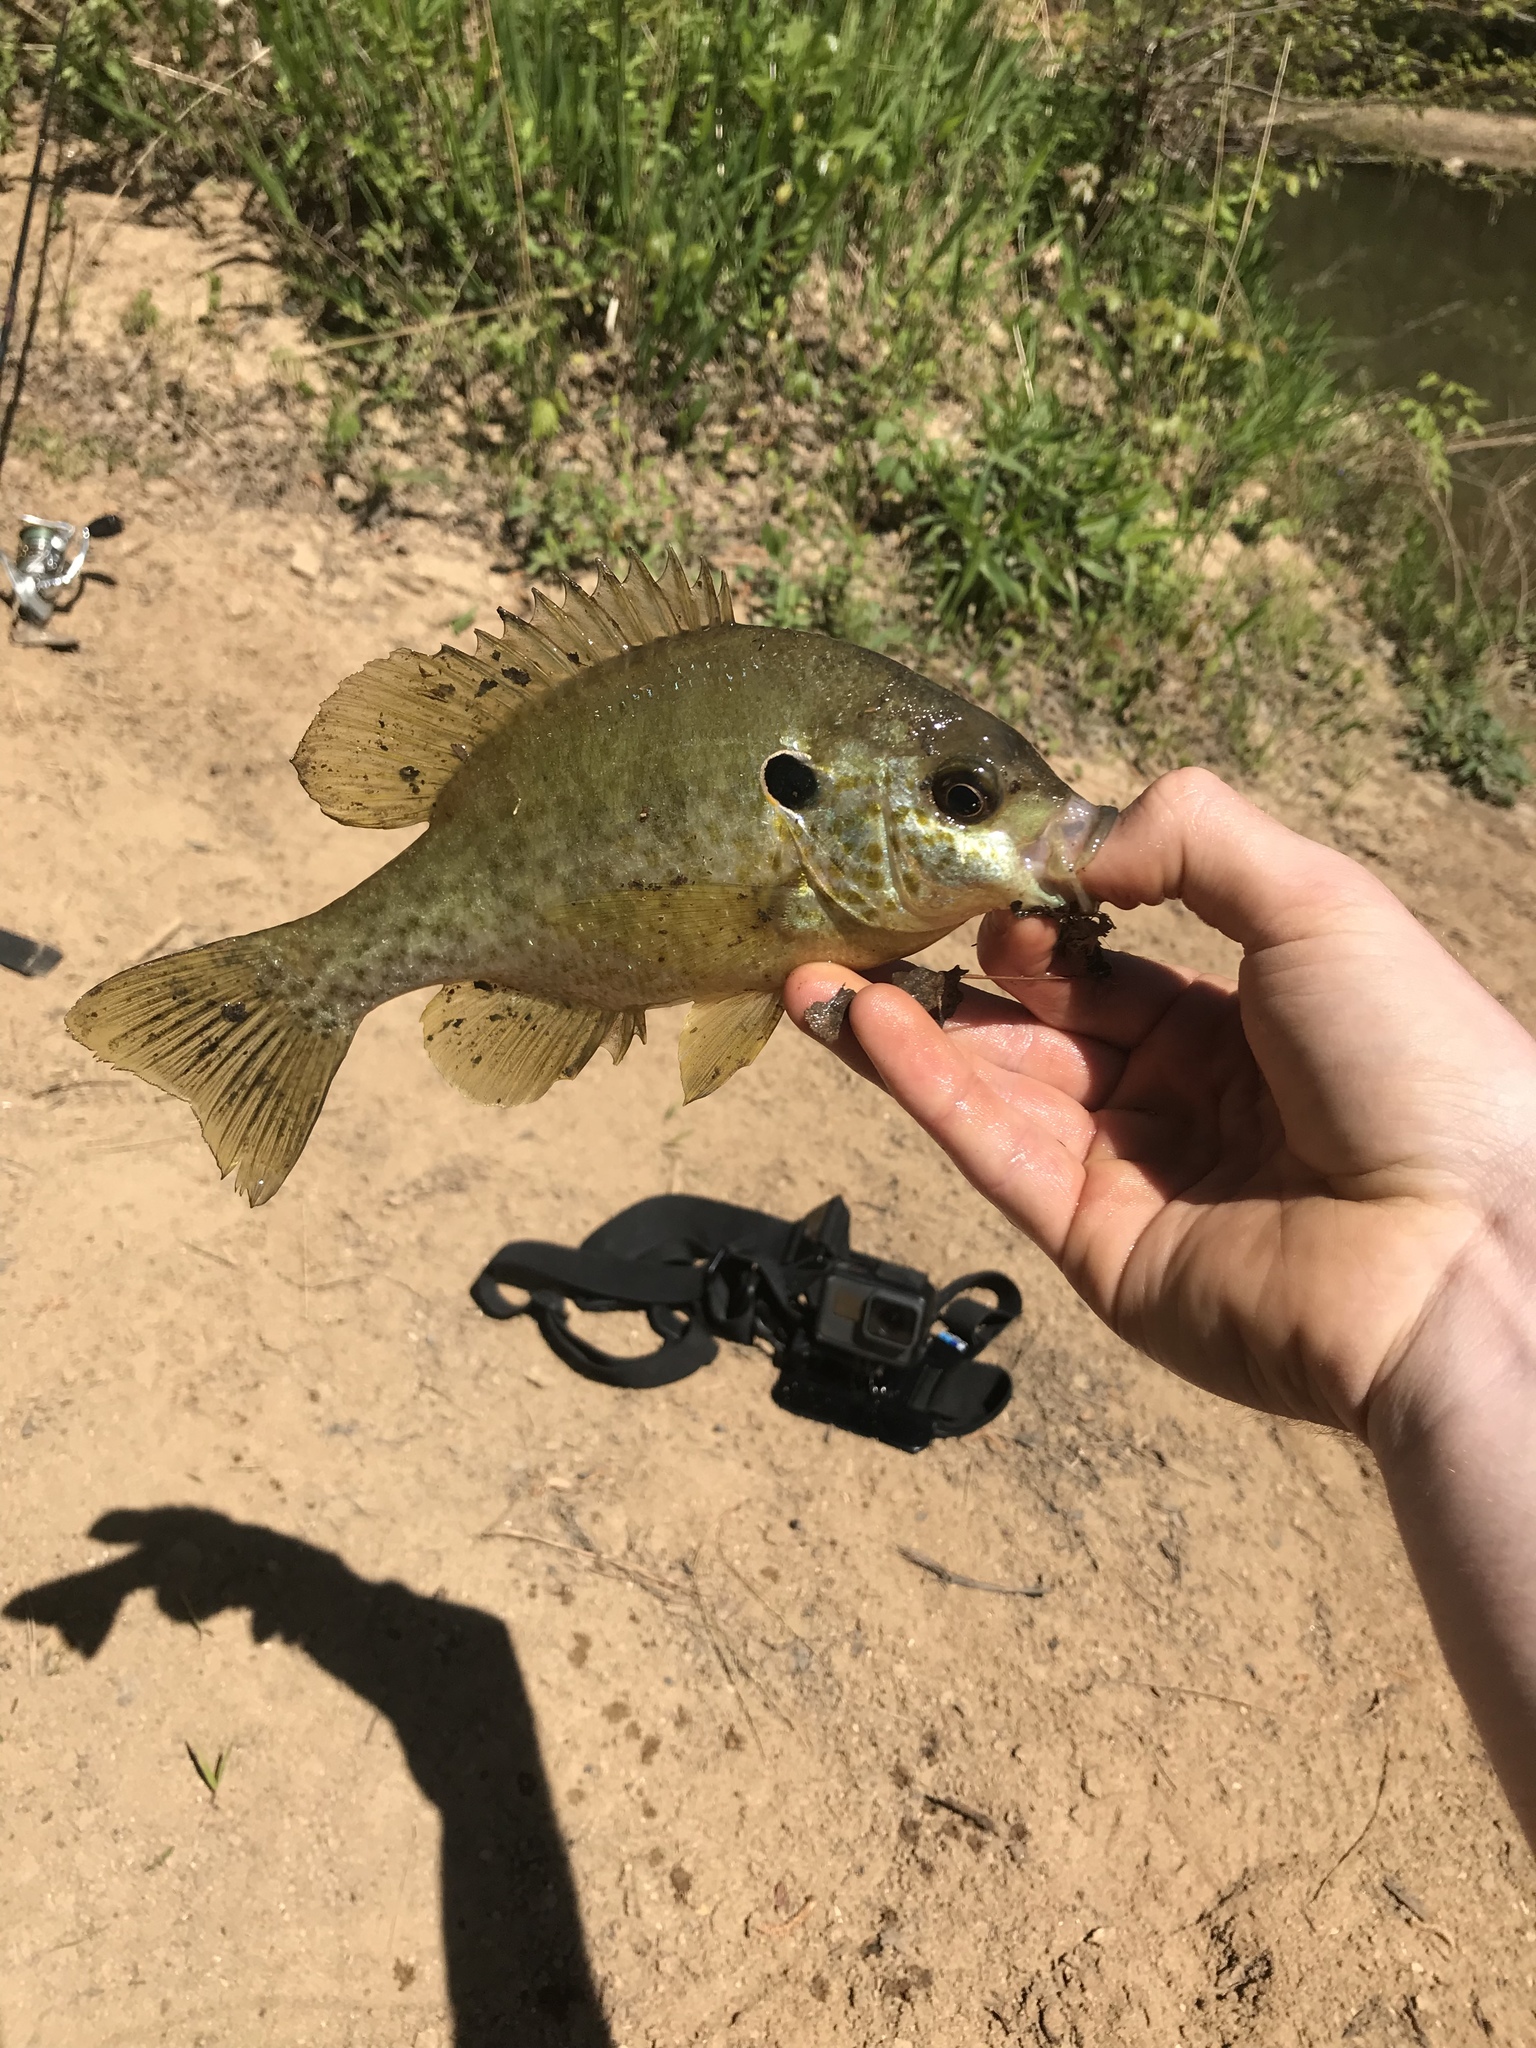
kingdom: Animalia
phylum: Chordata
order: Perciformes
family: Centrarchidae
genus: Lepomis
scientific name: Lepomis microlophus
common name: Redear sunfish
